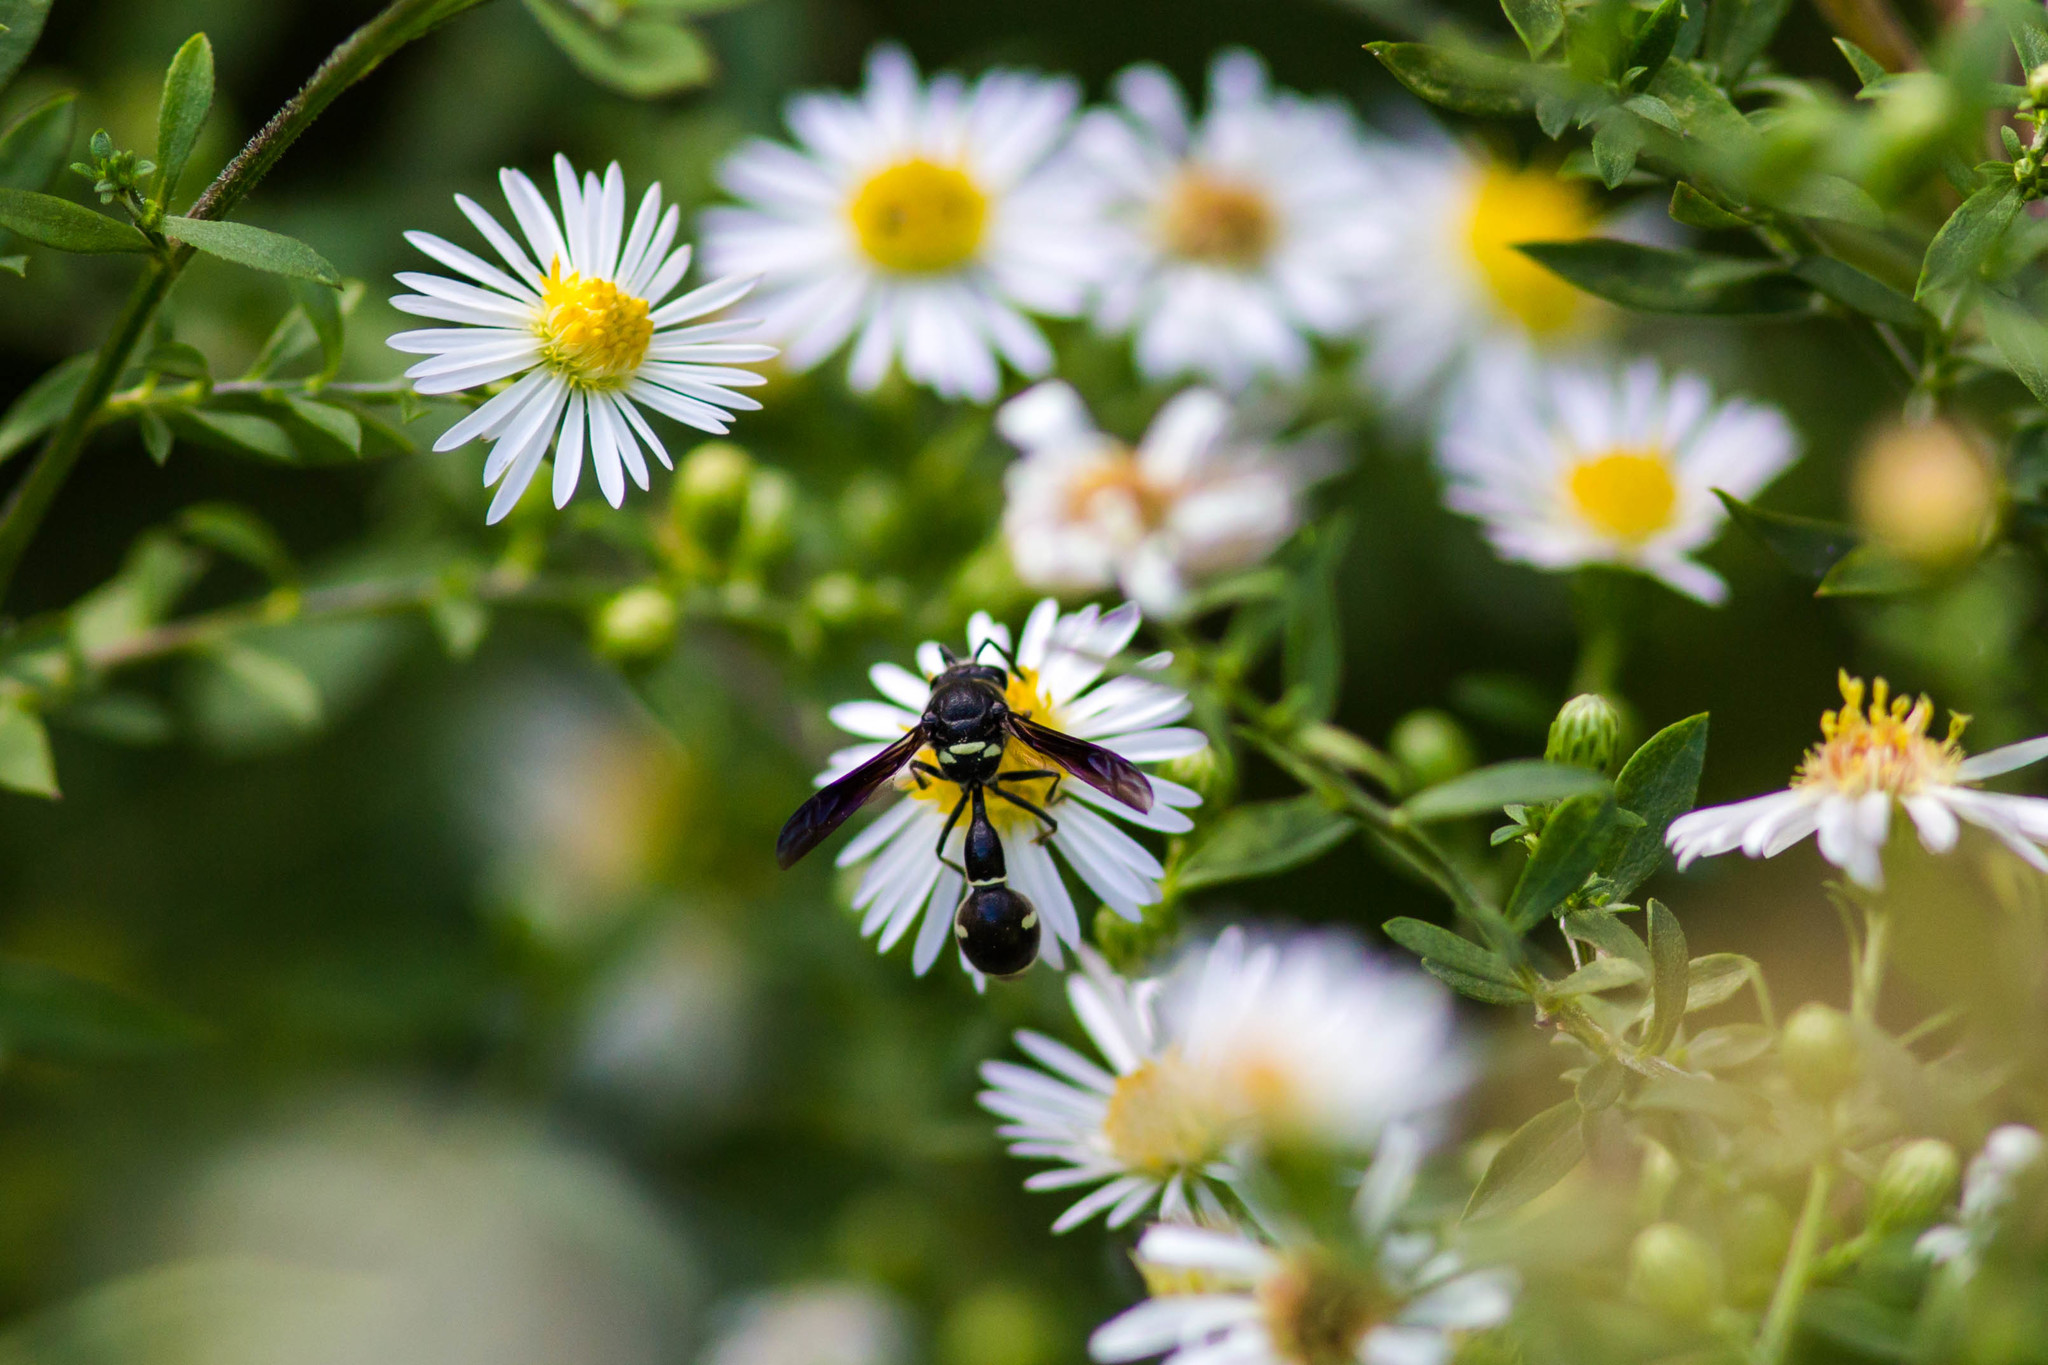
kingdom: Animalia
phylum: Arthropoda
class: Insecta
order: Hymenoptera
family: Vespidae
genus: Eumenes
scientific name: Eumenes fraternus
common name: Fraternal potter wasp
